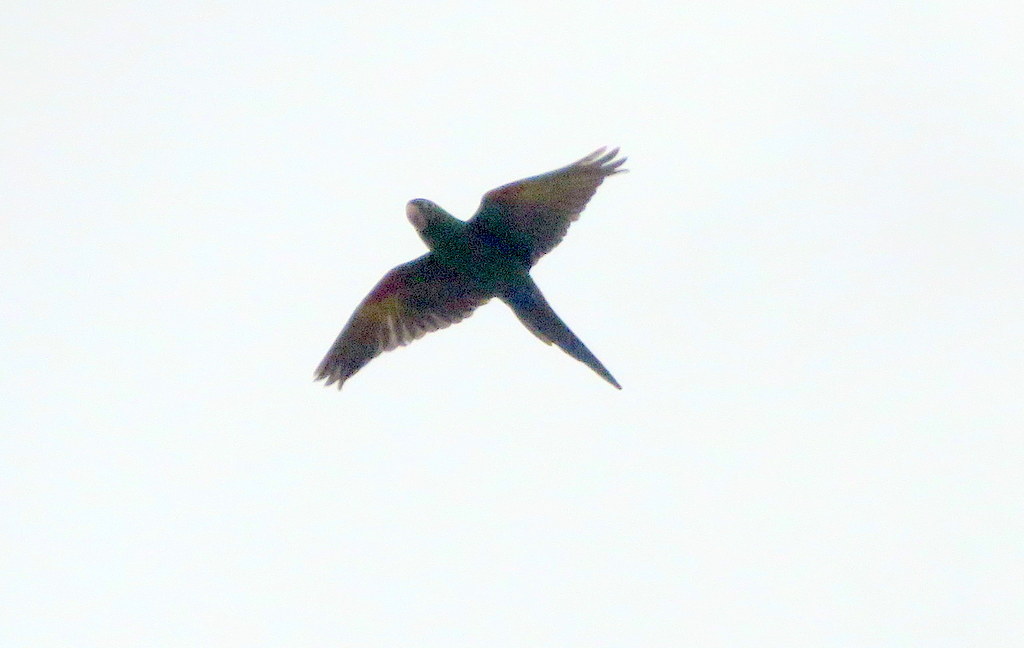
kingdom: Animalia
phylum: Chordata
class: Aves
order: Psittaciformes
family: Psittacidae
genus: Aratinga
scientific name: Aratinga leucophthalma
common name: White-eyed parakeet
